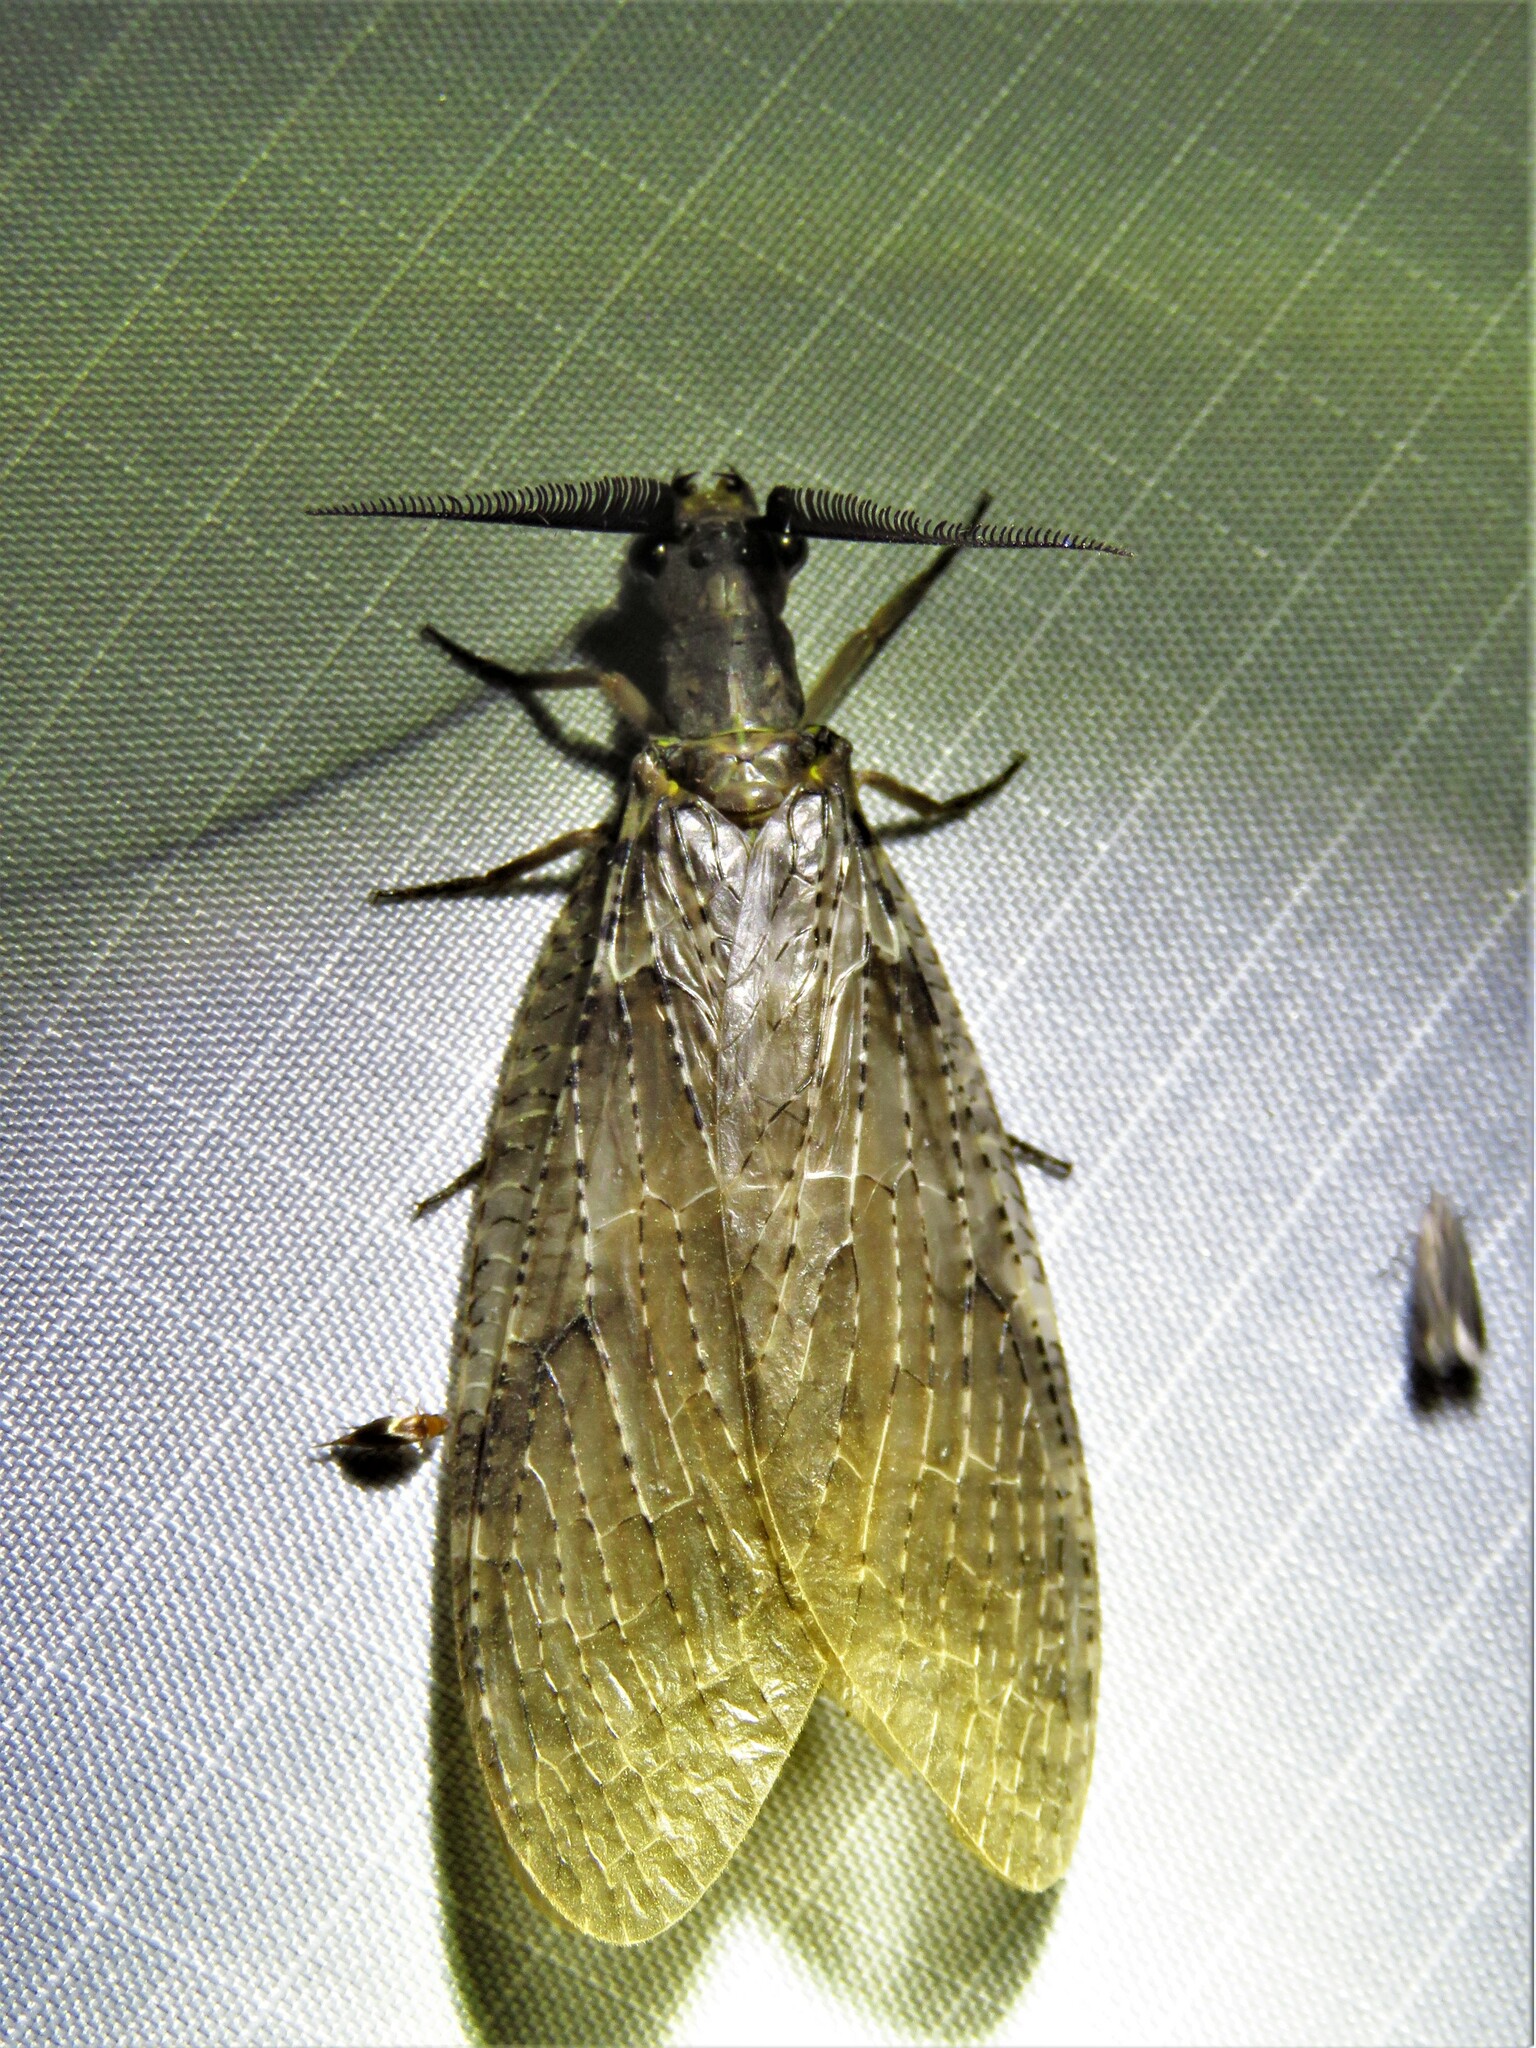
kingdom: Animalia
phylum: Arthropoda
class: Insecta
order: Megaloptera
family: Corydalidae
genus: Chauliodes
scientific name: Chauliodes pectinicornis
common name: Summer fishfly
